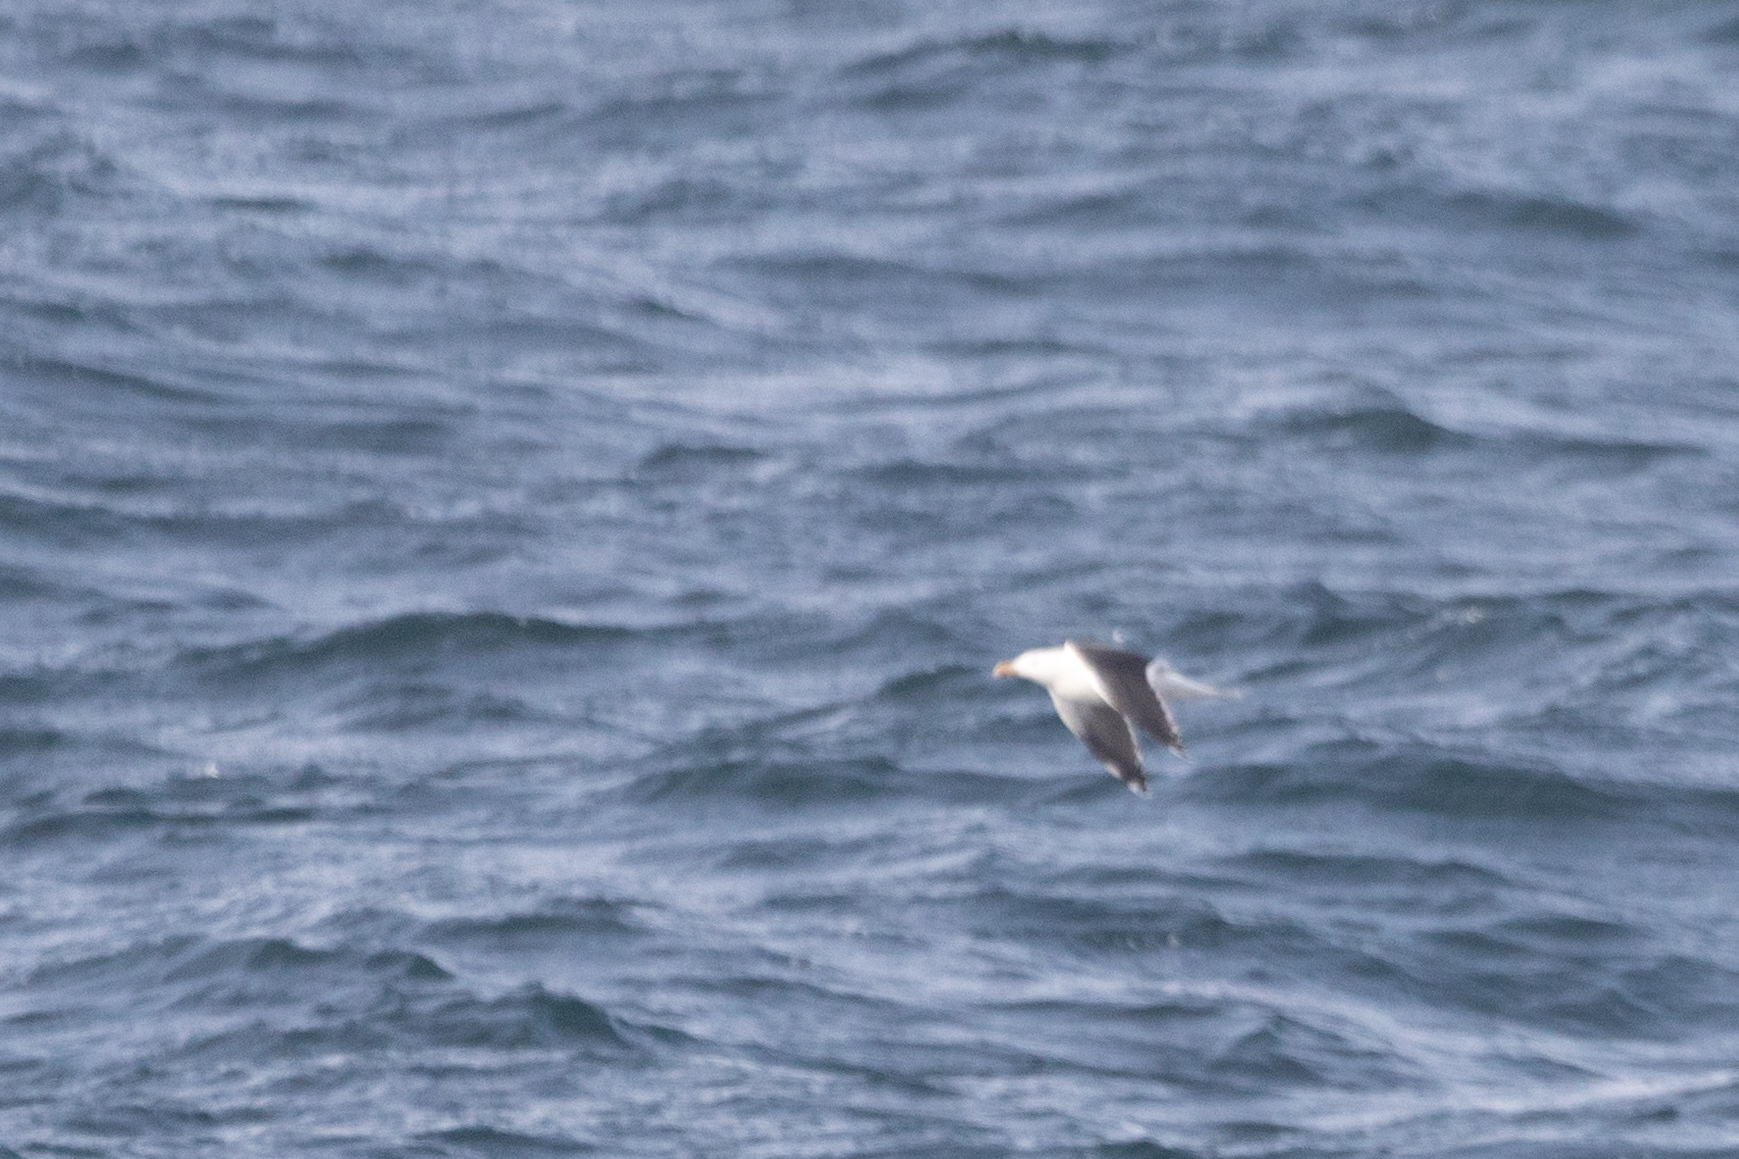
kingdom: Animalia
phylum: Chordata
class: Aves
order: Charadriiformes
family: Laridae
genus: Larus
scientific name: Larus marinus
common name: Great black-backed gull
